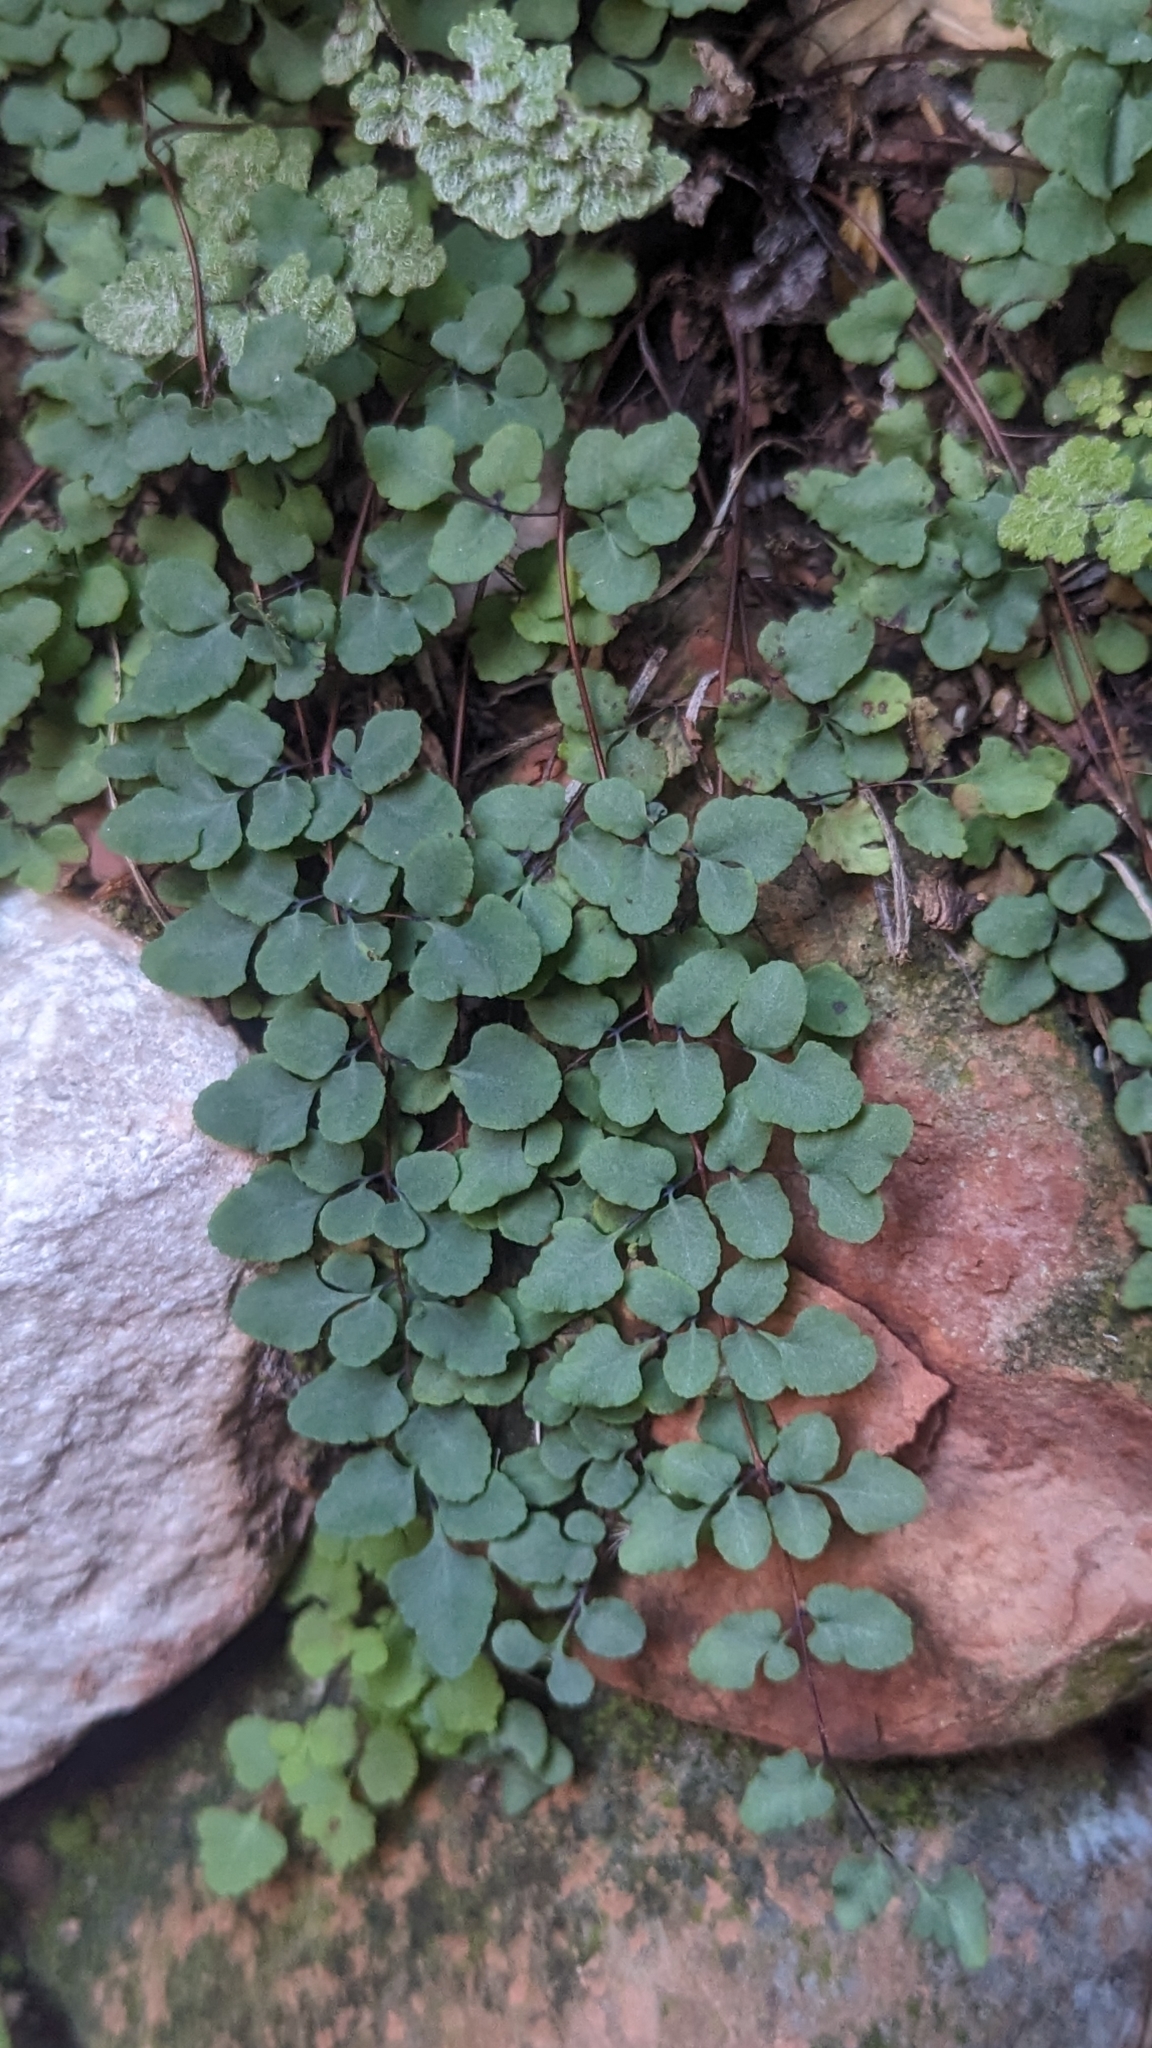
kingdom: Plantae
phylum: Tracheophyta
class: Polypodiopsida
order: Polypodiales
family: Pteridaceae
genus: Argyrochosma
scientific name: Argyrochosma jonesii
